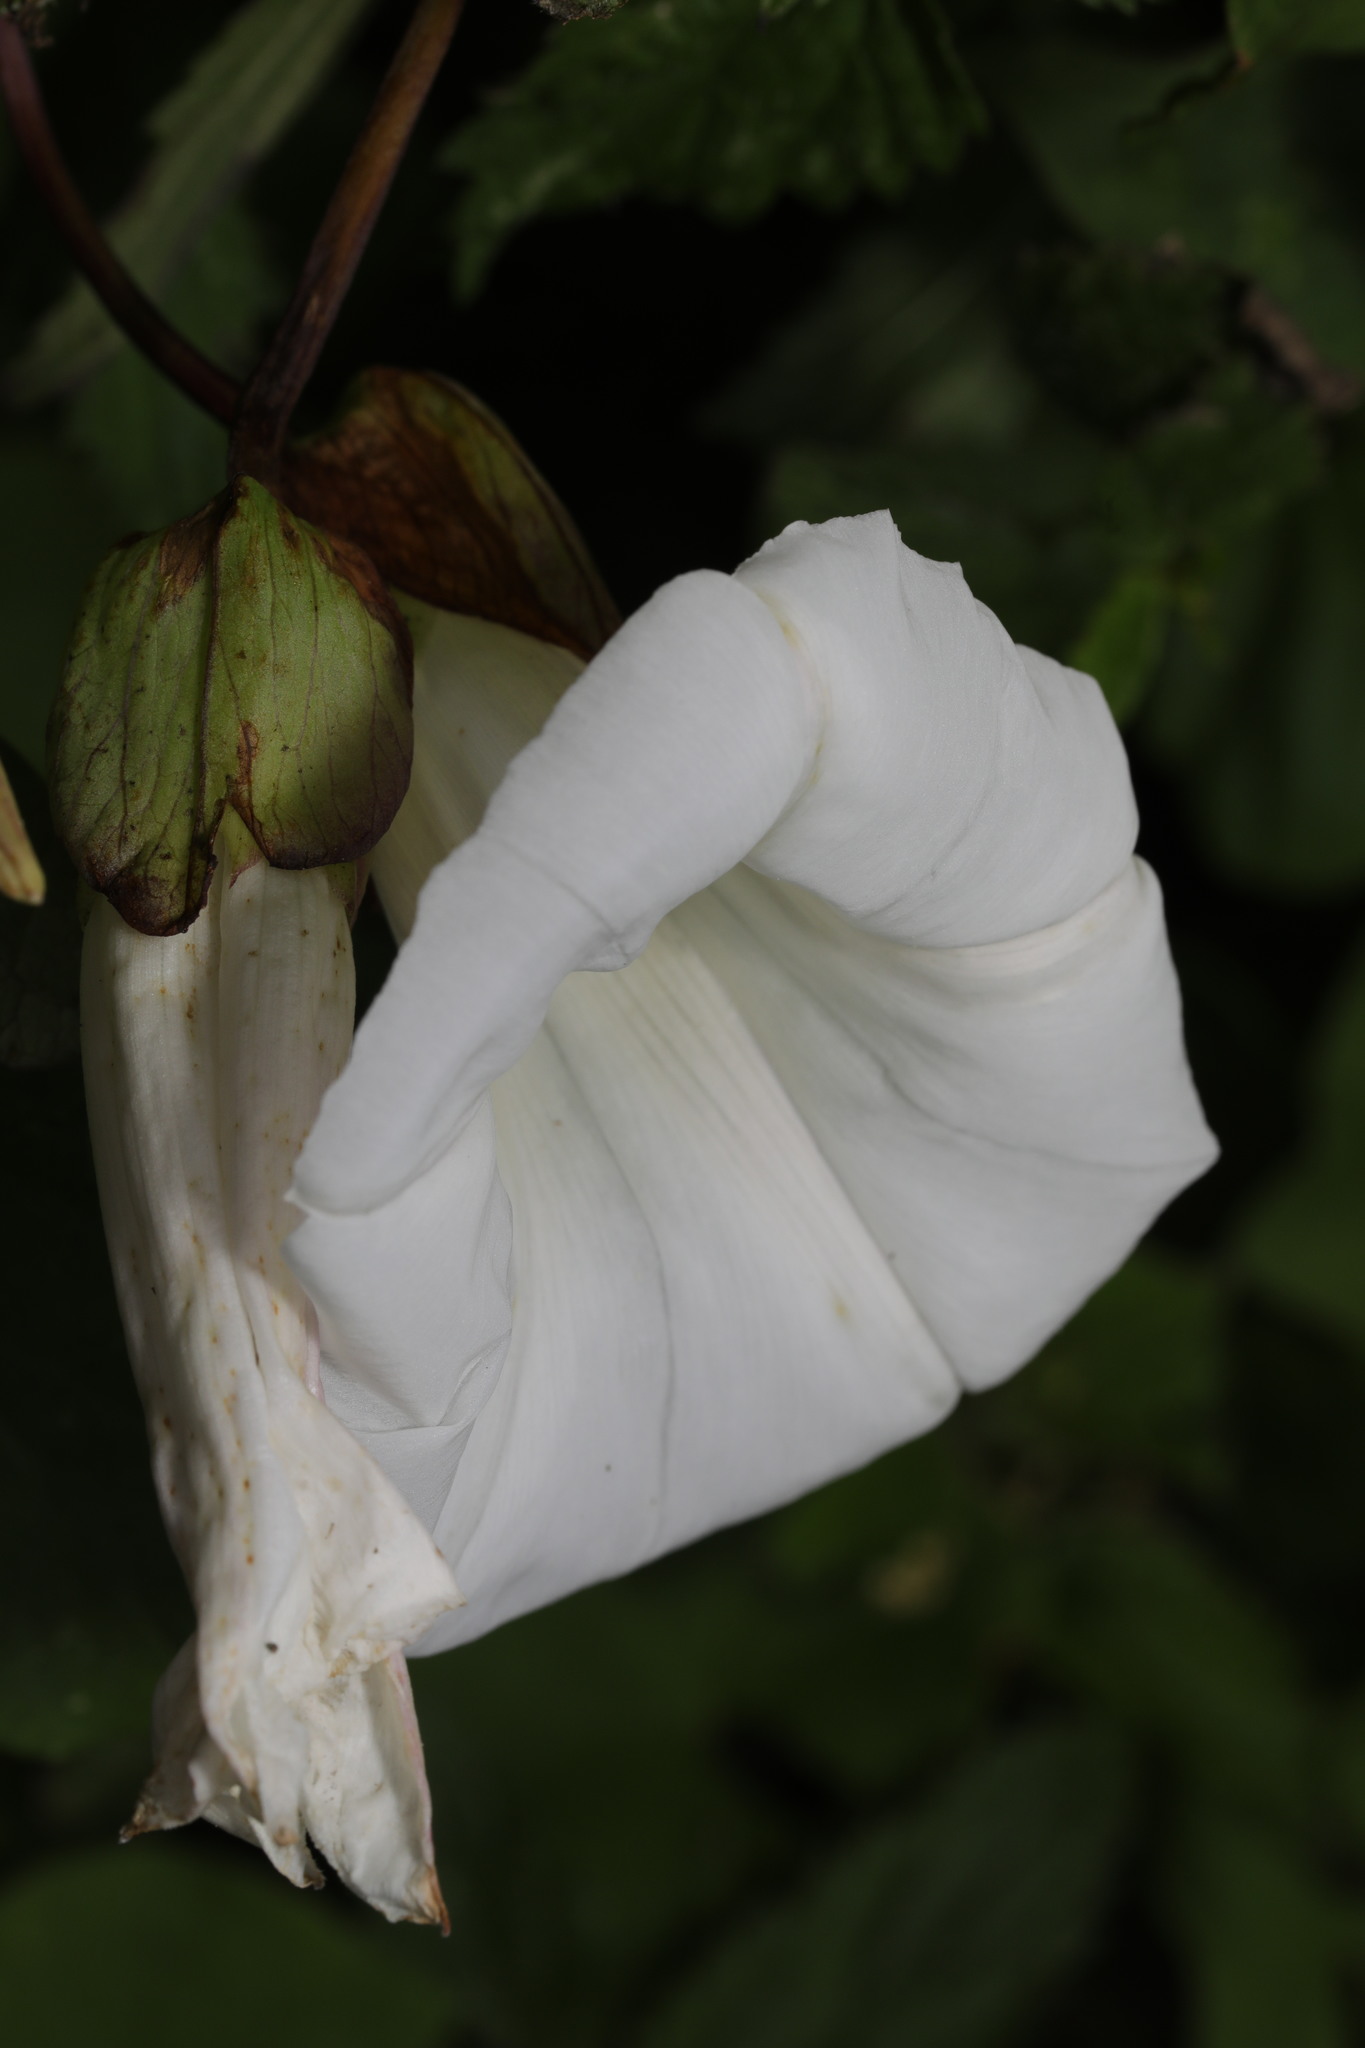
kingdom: Plantae
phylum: Tracheophyta
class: Magnoliopsida
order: Solanales
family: Convolvulaceae
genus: Calystegia
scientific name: Calystegia silvatica
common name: Large bindweed
